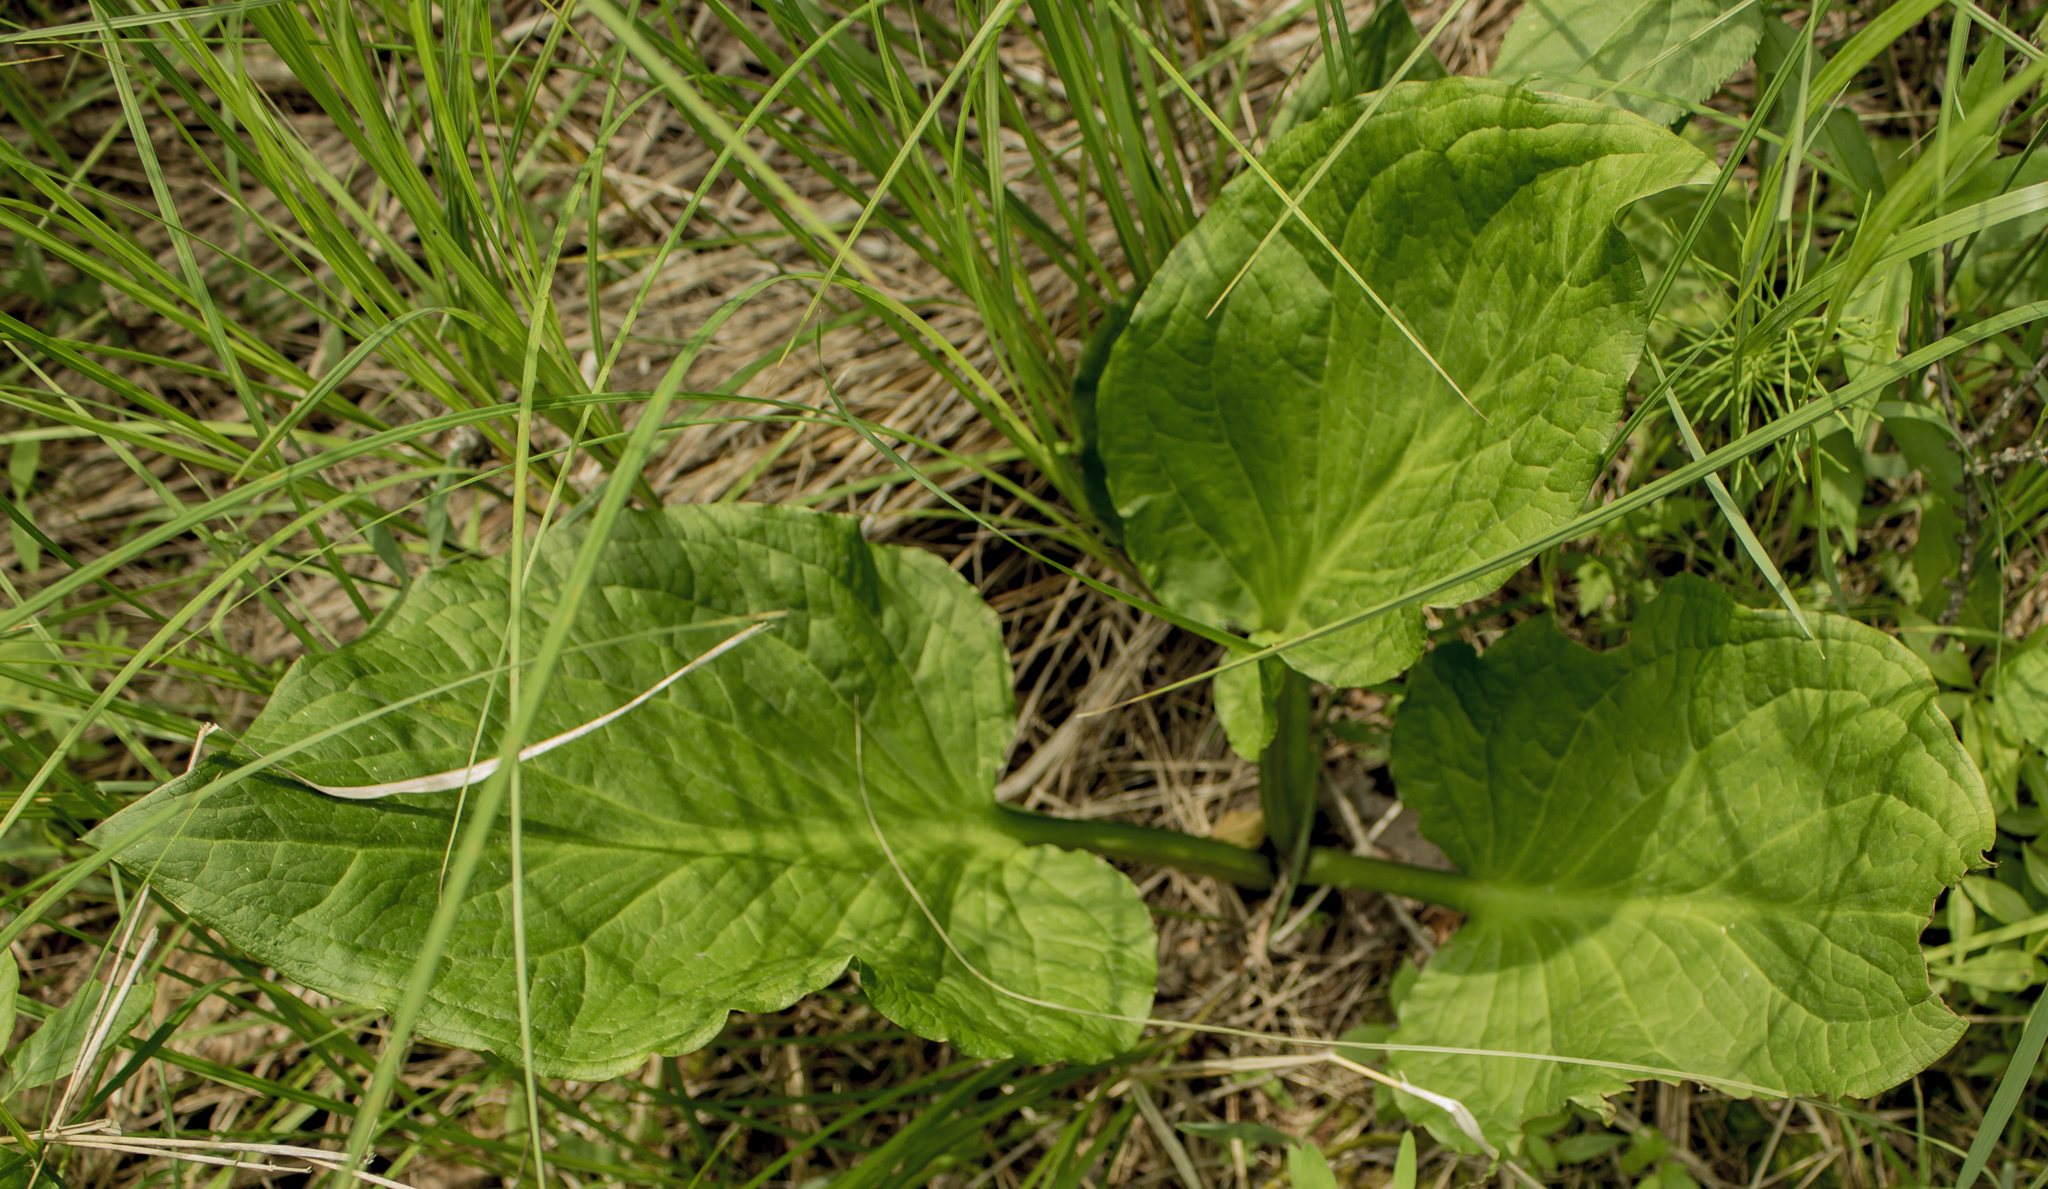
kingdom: Plantae
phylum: Tracheophyta
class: Liliopsida
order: Alismatales
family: Araceae
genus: Symplocarpus
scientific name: Symplocarpus foetidus
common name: Eastern skunk cabbage
